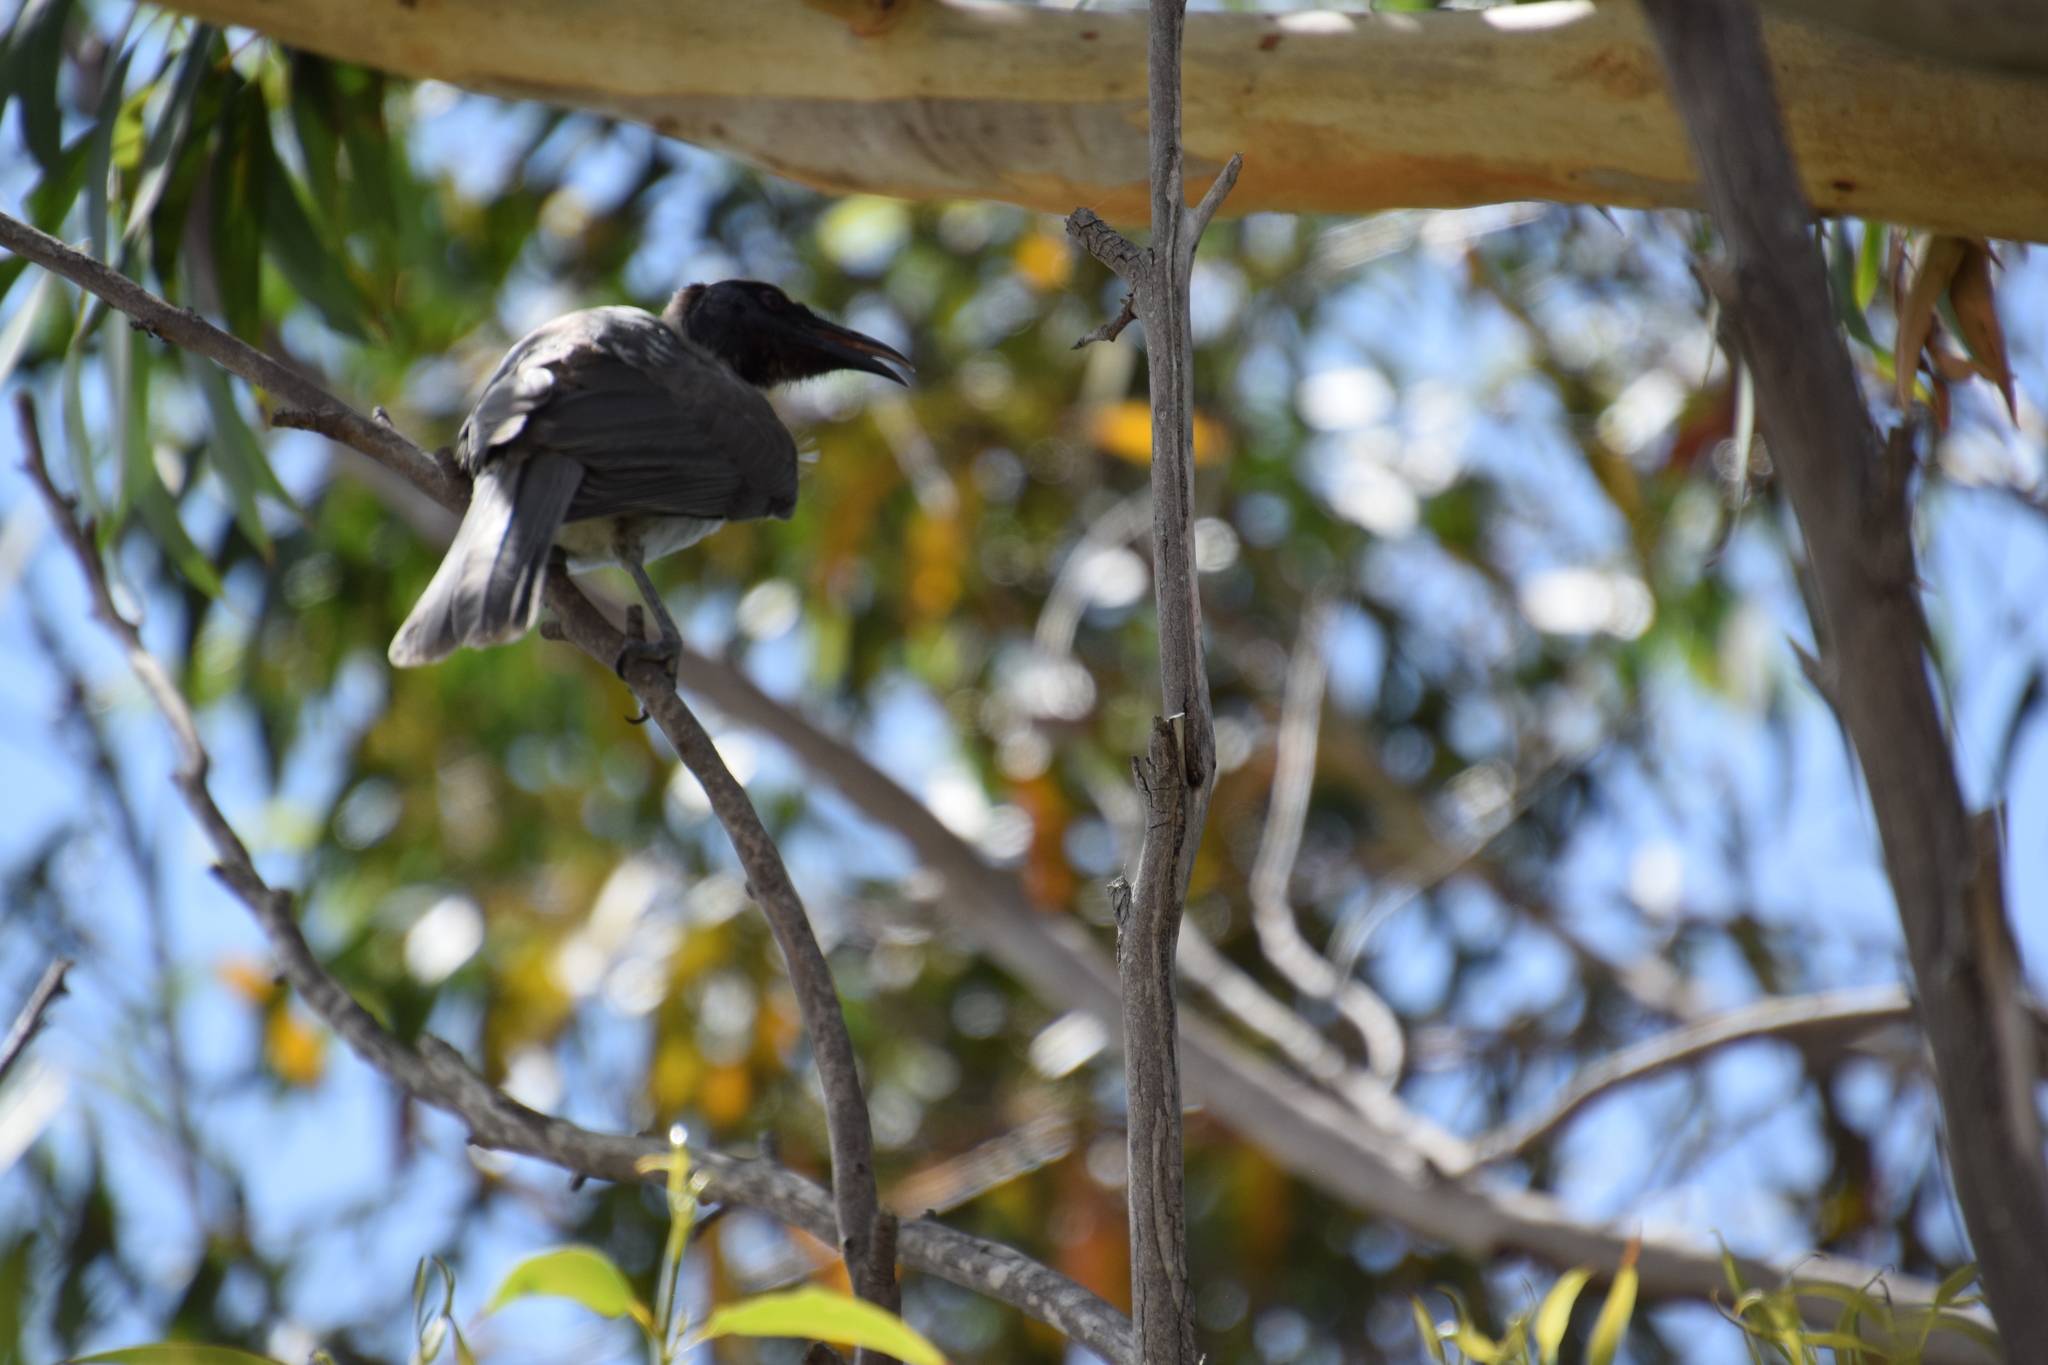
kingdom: Animalia
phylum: Chordata
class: Aves
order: Passeriformes
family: Meliphagidae
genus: Philemon
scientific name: Philemon corniculatus
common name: Noisy friarbird
